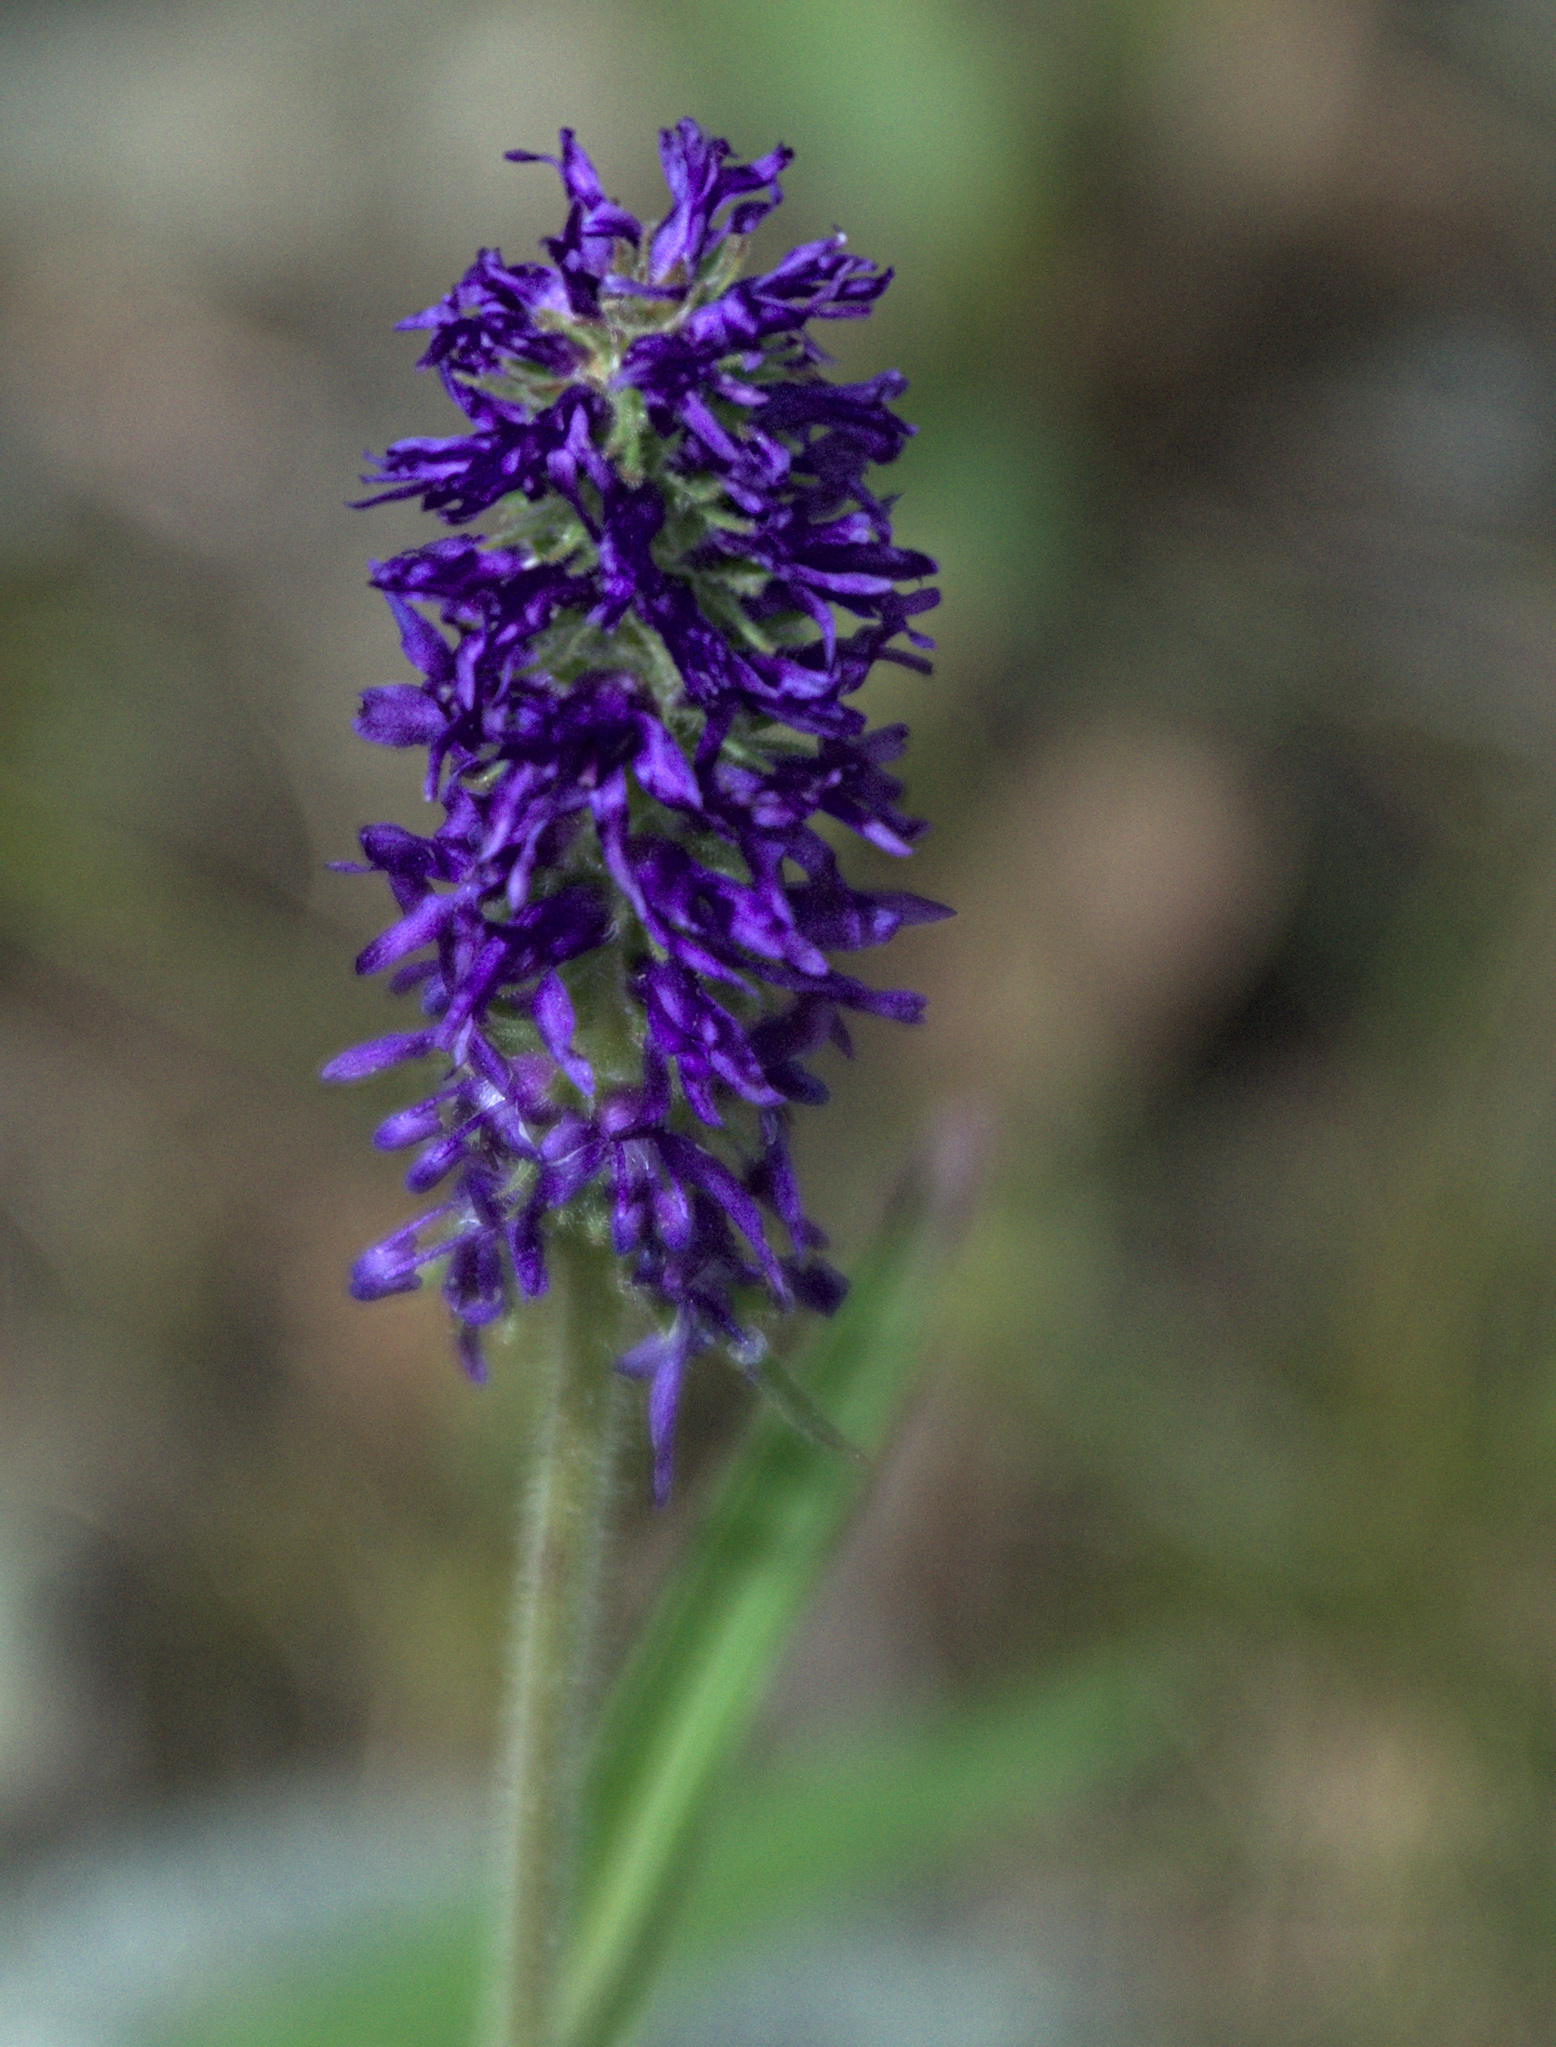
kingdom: Plantae
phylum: Tracheophyta
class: Magnoliopsida
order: Lamiales
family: Plantaginaceae
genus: Veronica
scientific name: Veronica porphyriana
